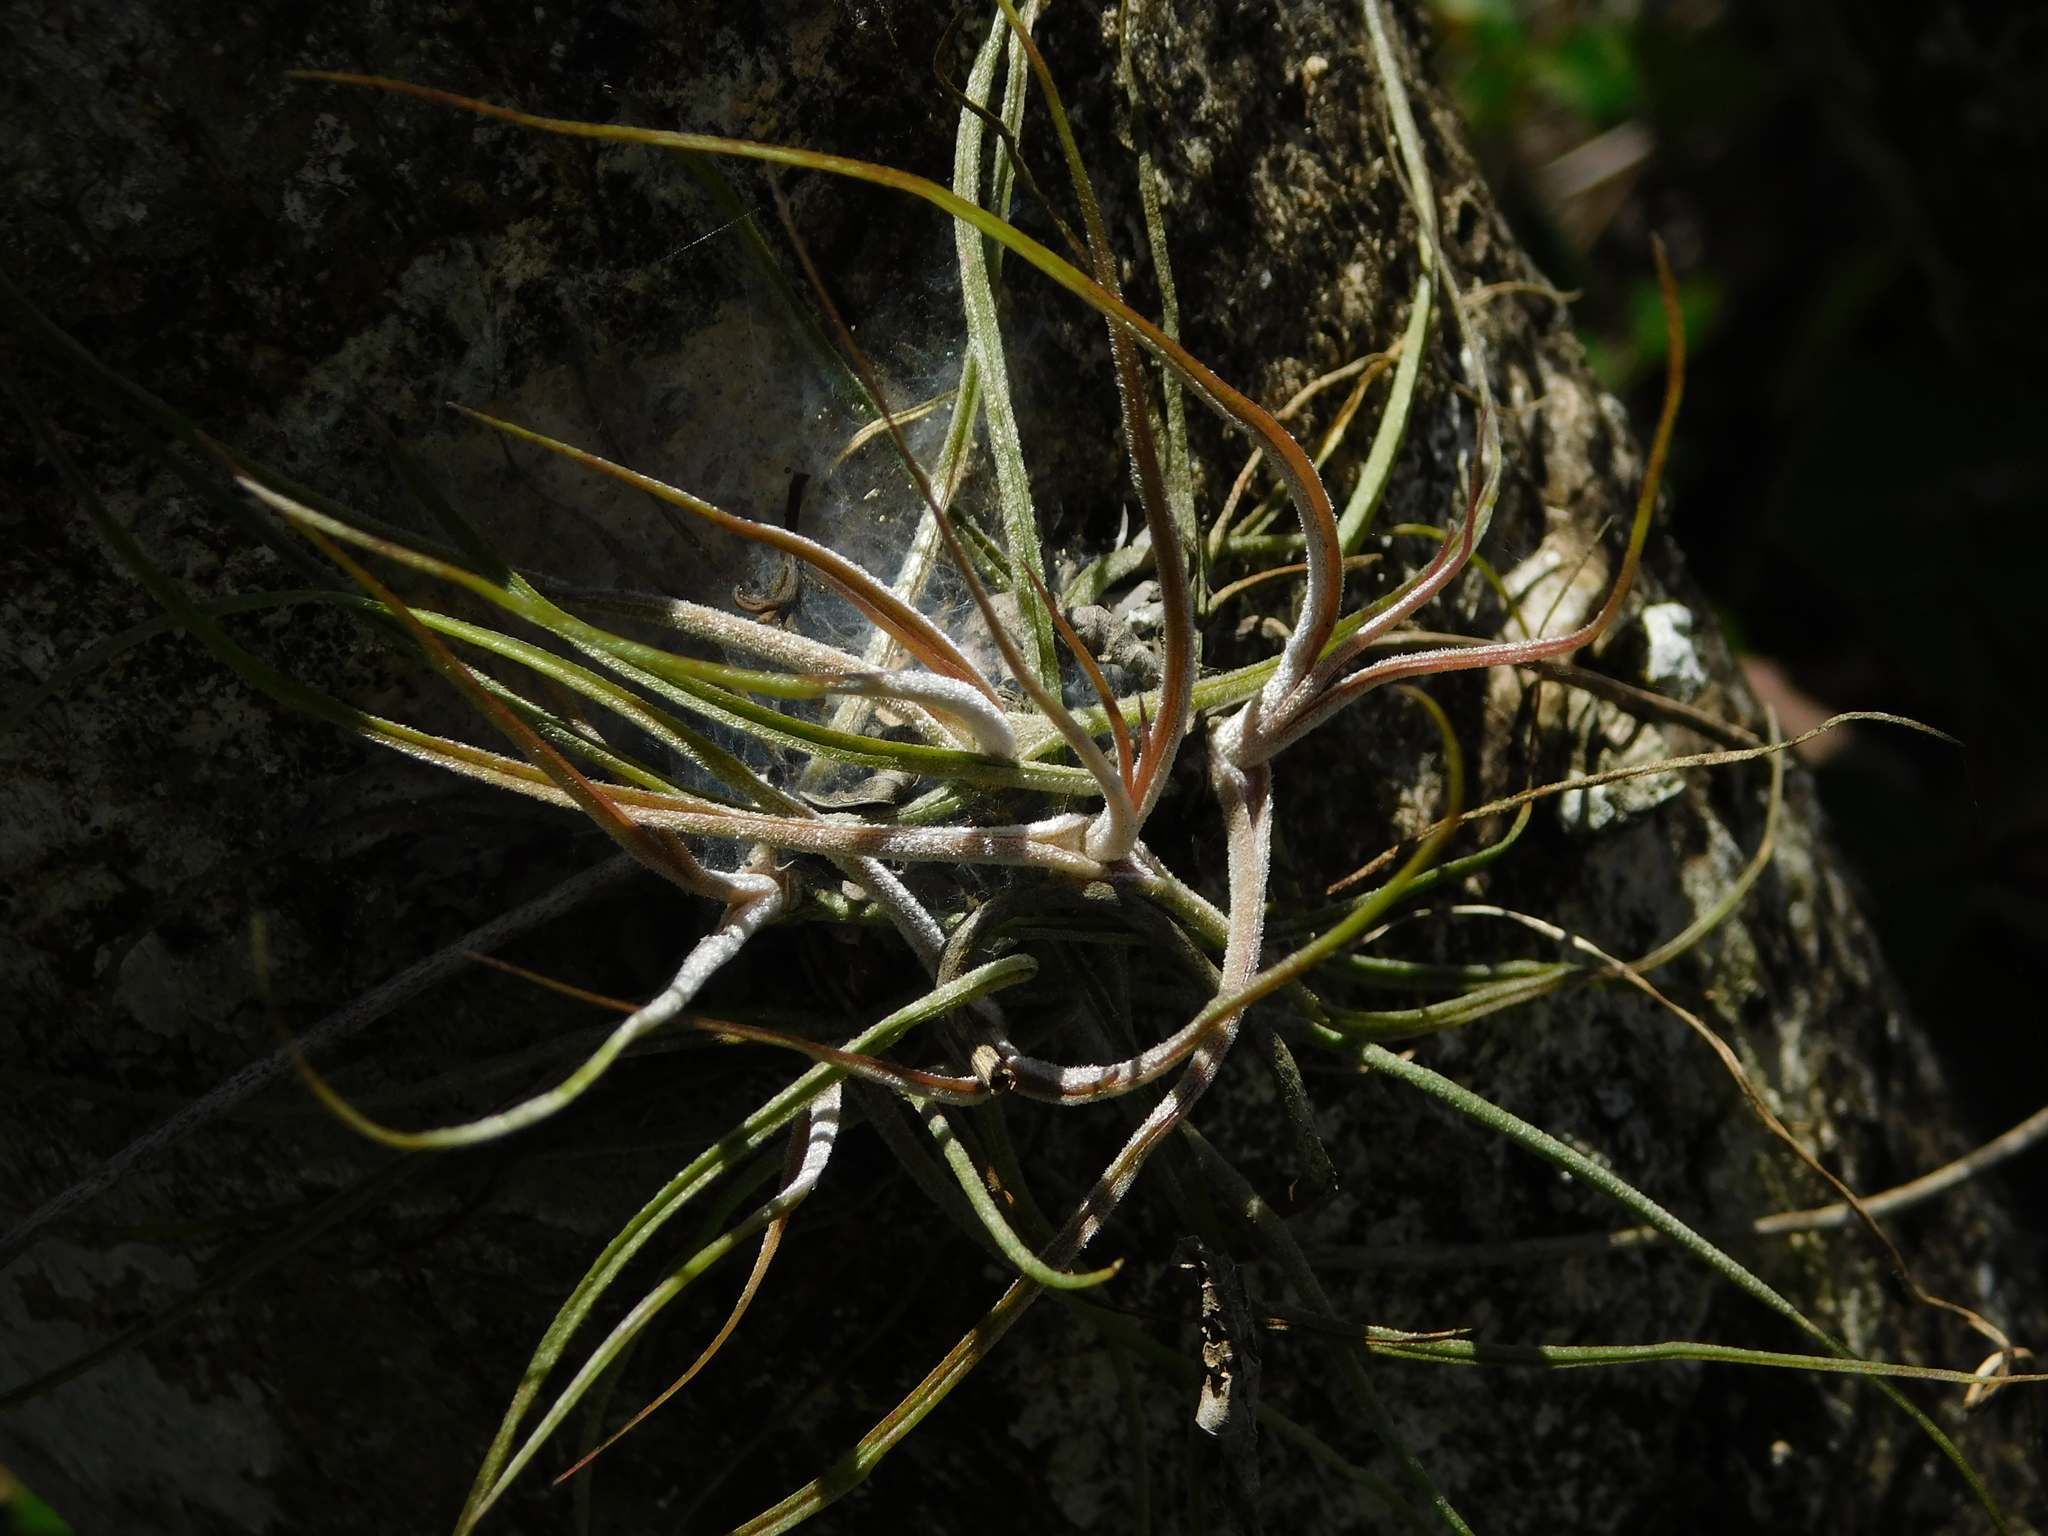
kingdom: Plantae
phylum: Tracheophyta
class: Liliopsida
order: Poales
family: Bromeliaceae
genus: Tillandsia
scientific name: Tillandsia schiedeana
